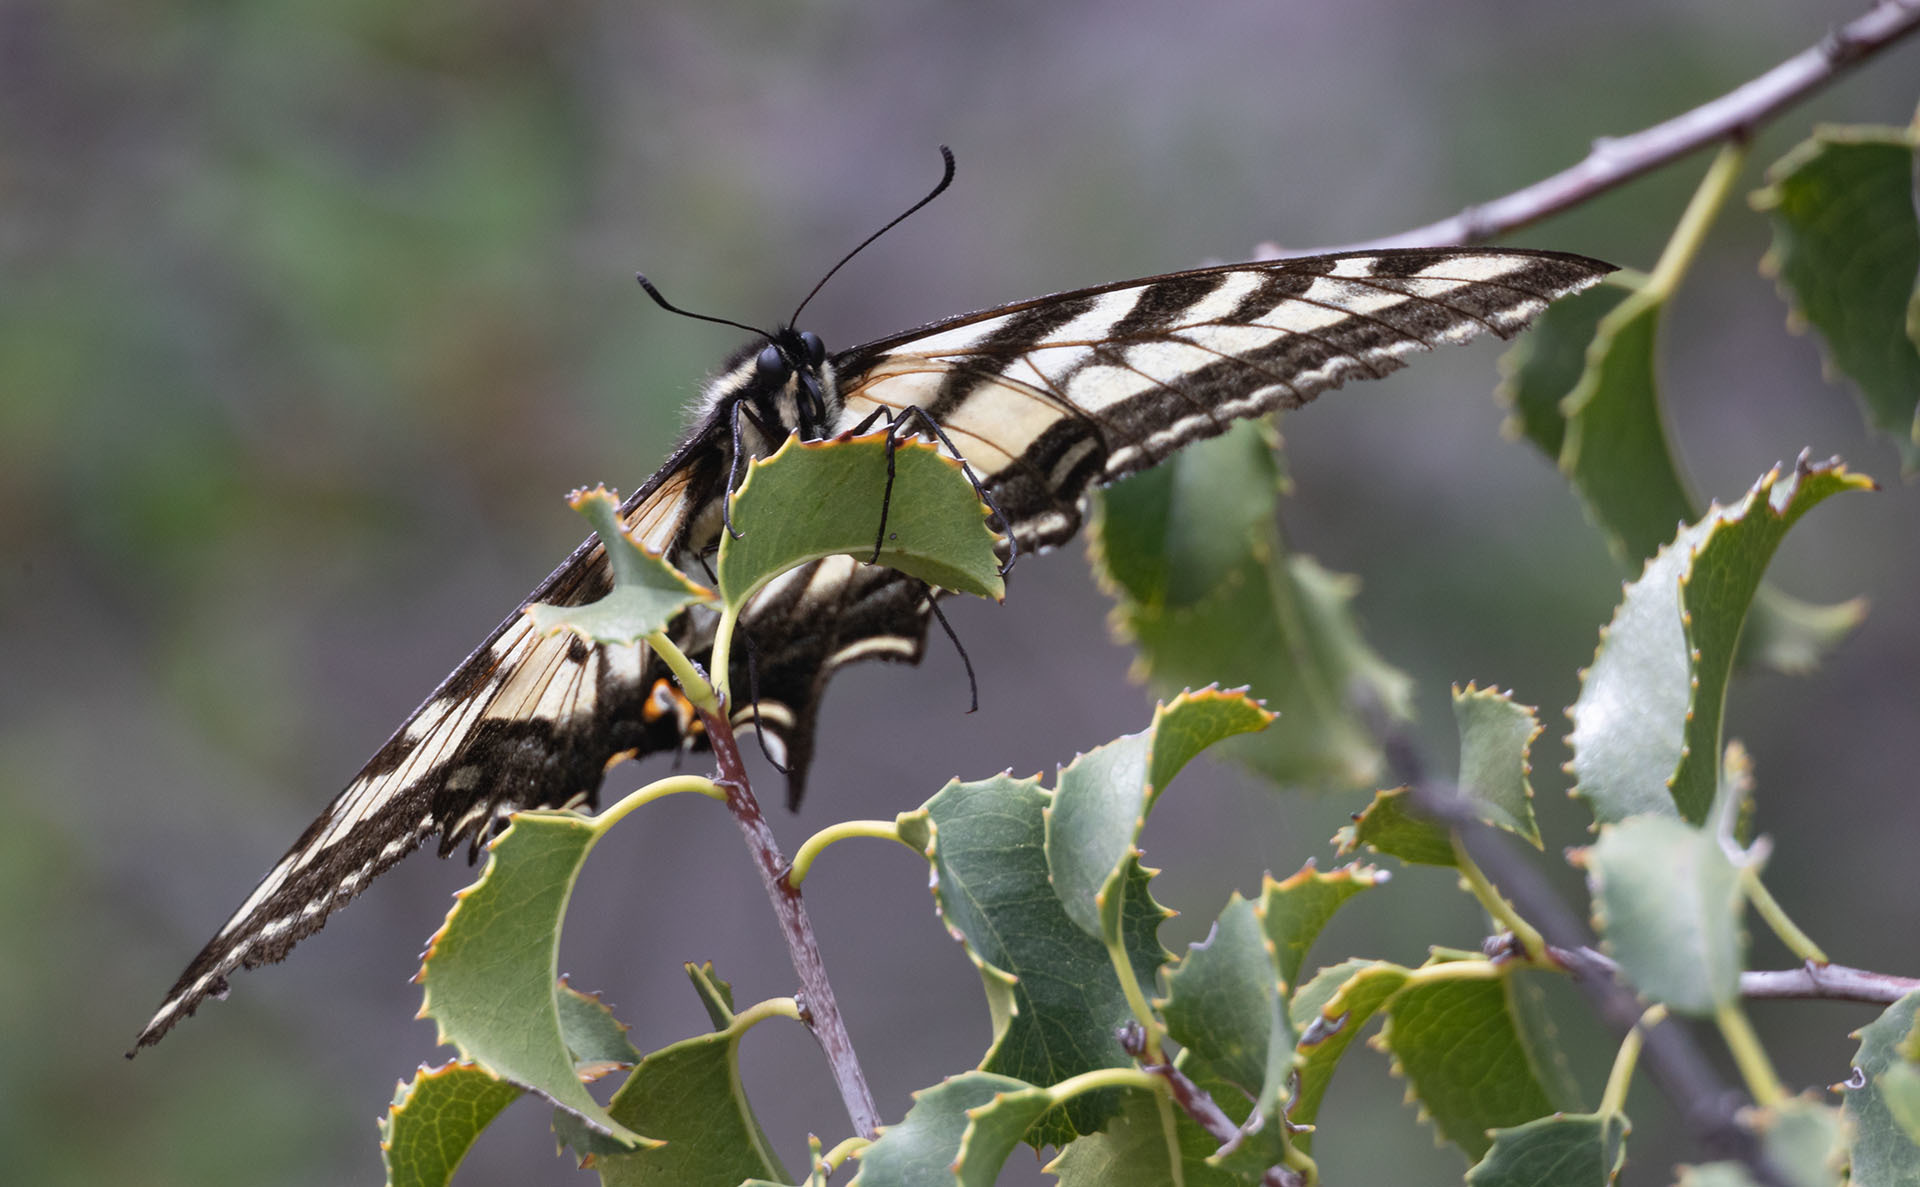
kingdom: Animalia
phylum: Arthropoda
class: Insecta
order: Lepidoptera
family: Papilionidae
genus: Papilio
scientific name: Papilio eurymedon
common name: Pale tiger swallowtail
